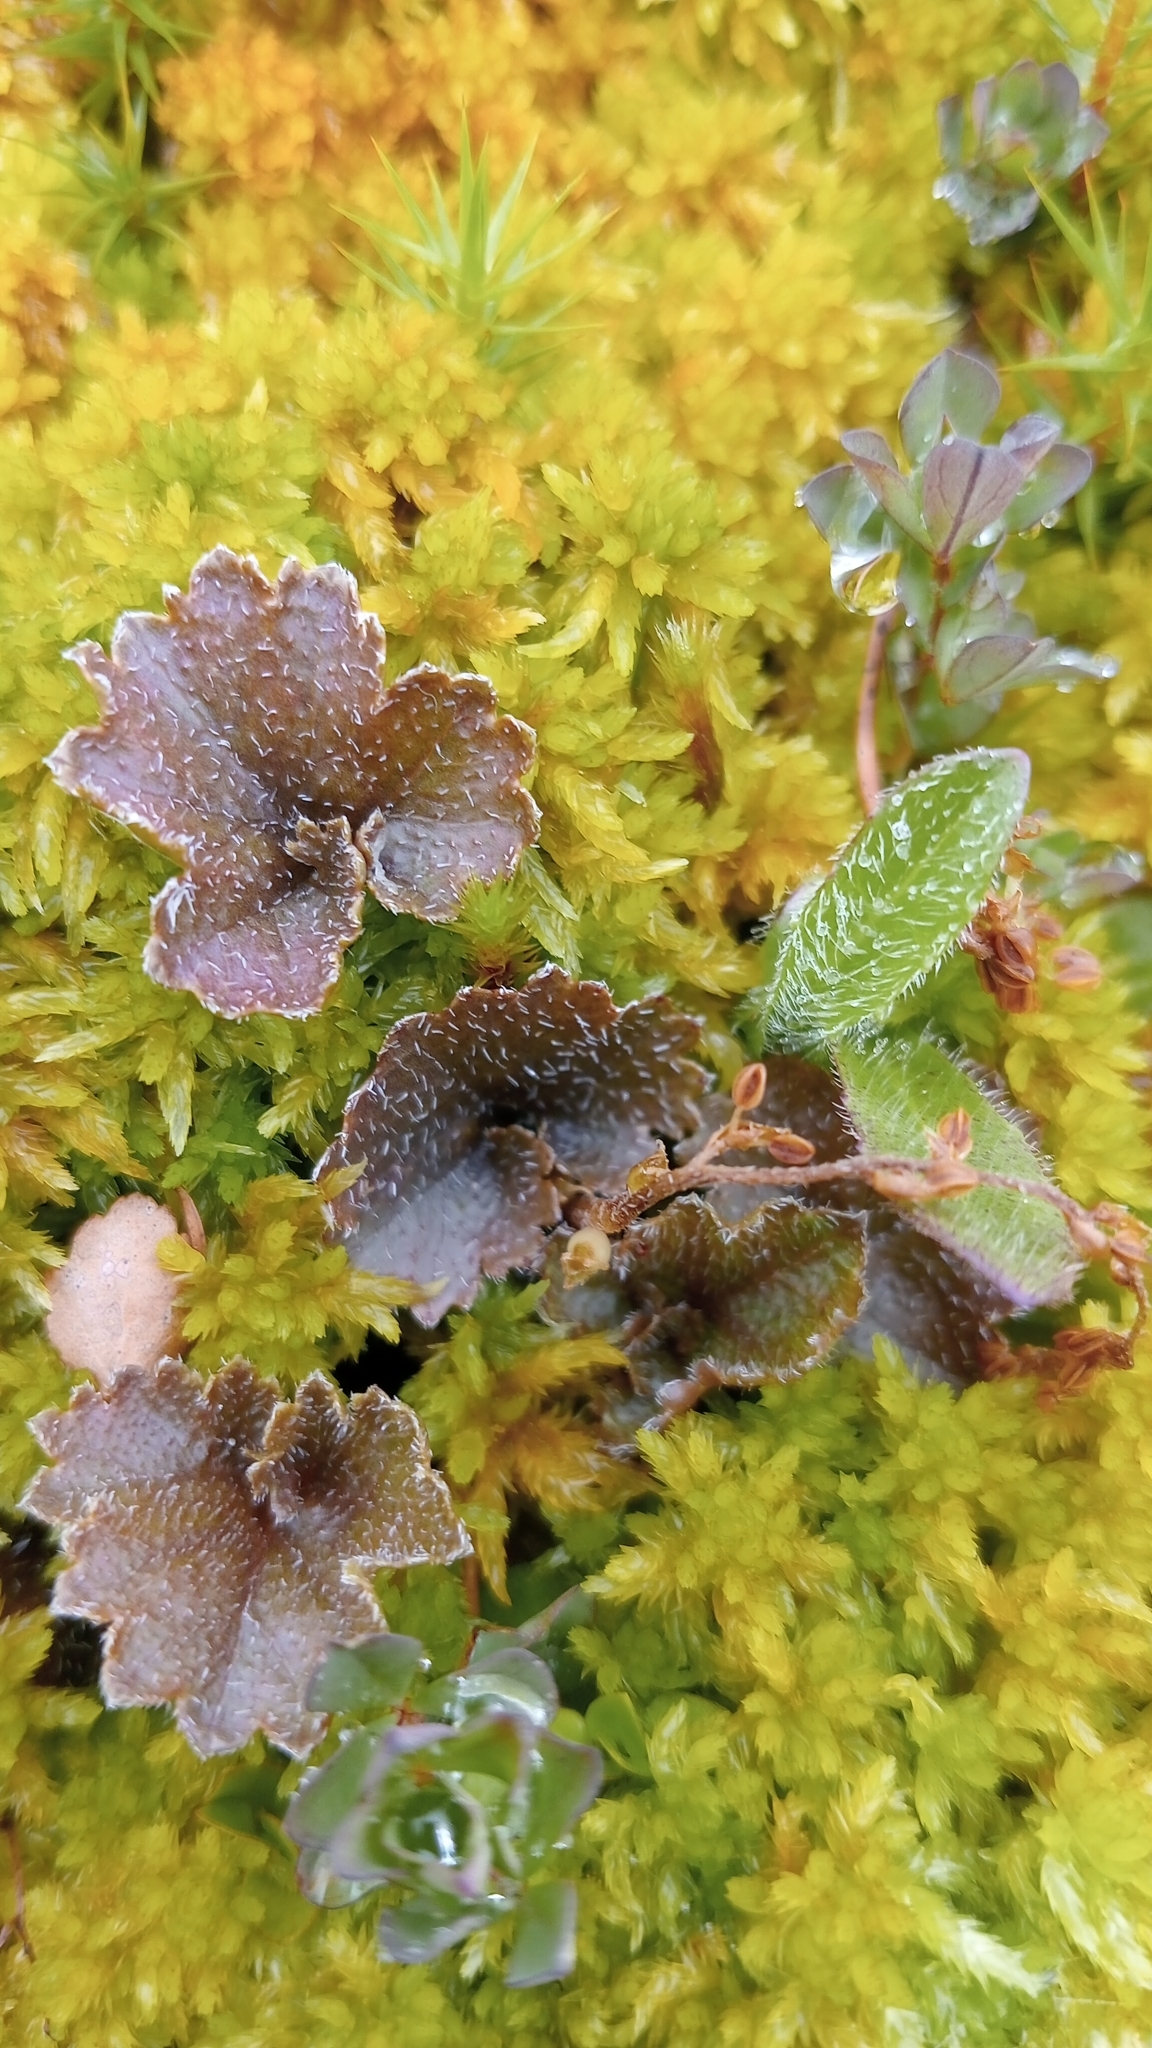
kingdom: Plantae
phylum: Tracheophyta
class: Magnoliopsida
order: Gunnerales
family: Gunneraceae
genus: Gunnera
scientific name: Gunnera monoica
